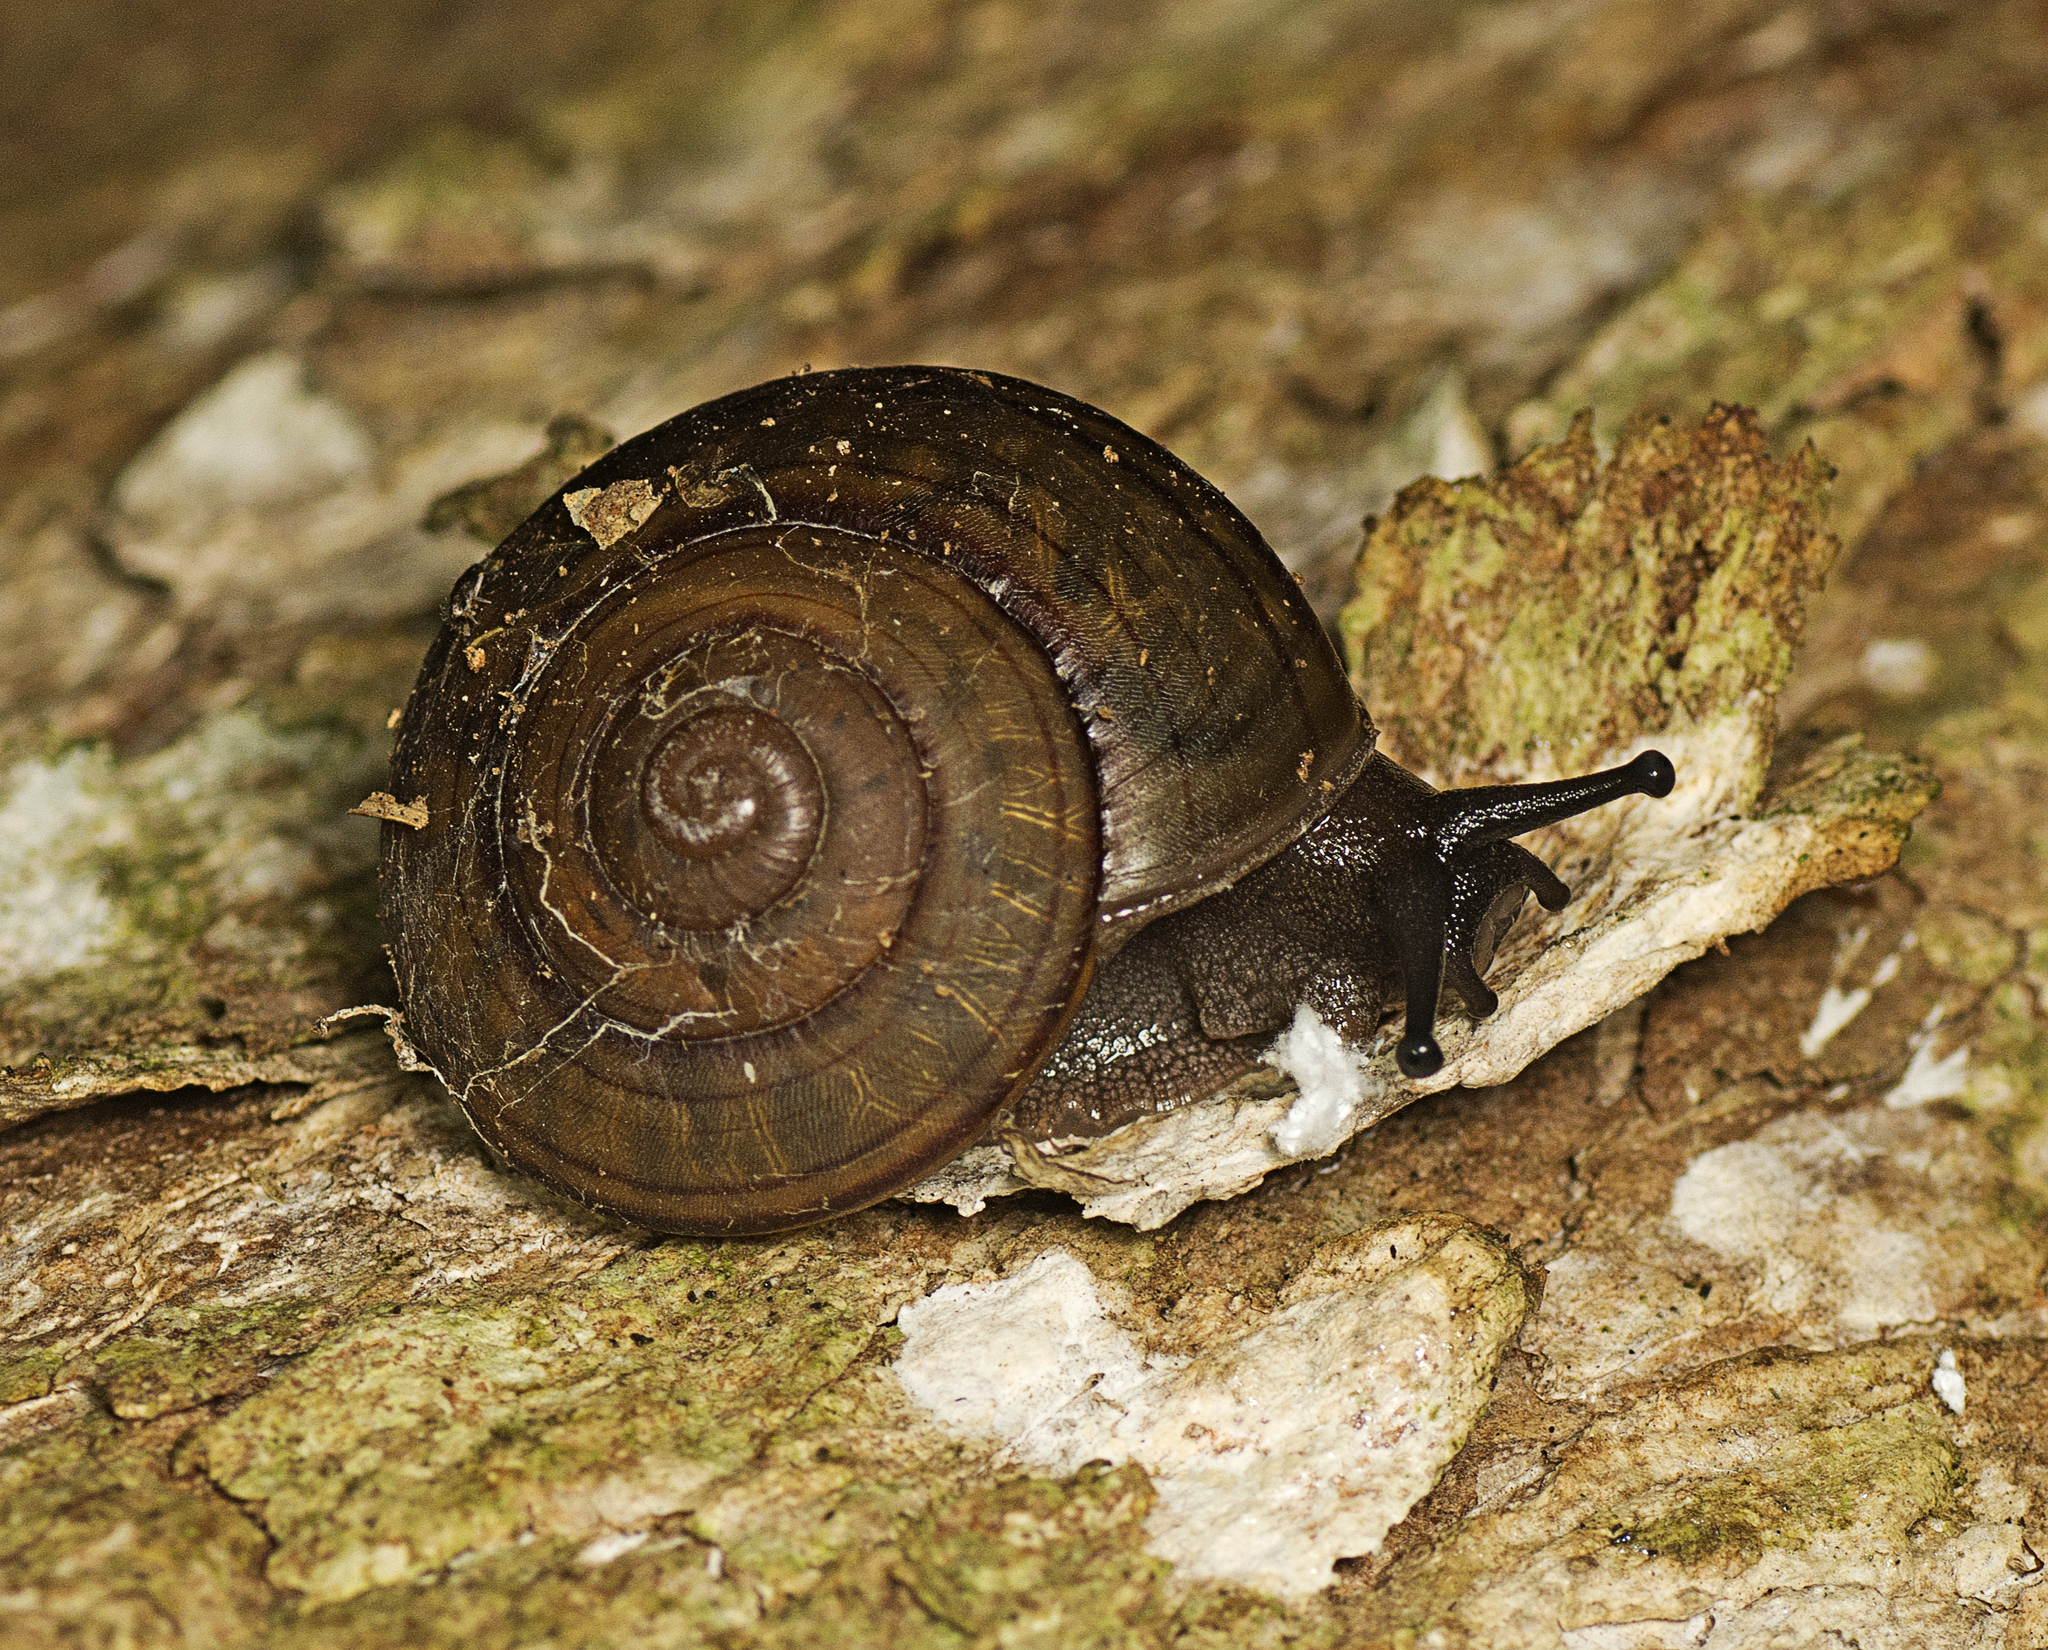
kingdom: Animalia
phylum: Mollusca
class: Gastropoda
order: Stylommatophora
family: Camaenidae
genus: Sphaerospira
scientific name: Sphaerospira fraseri
